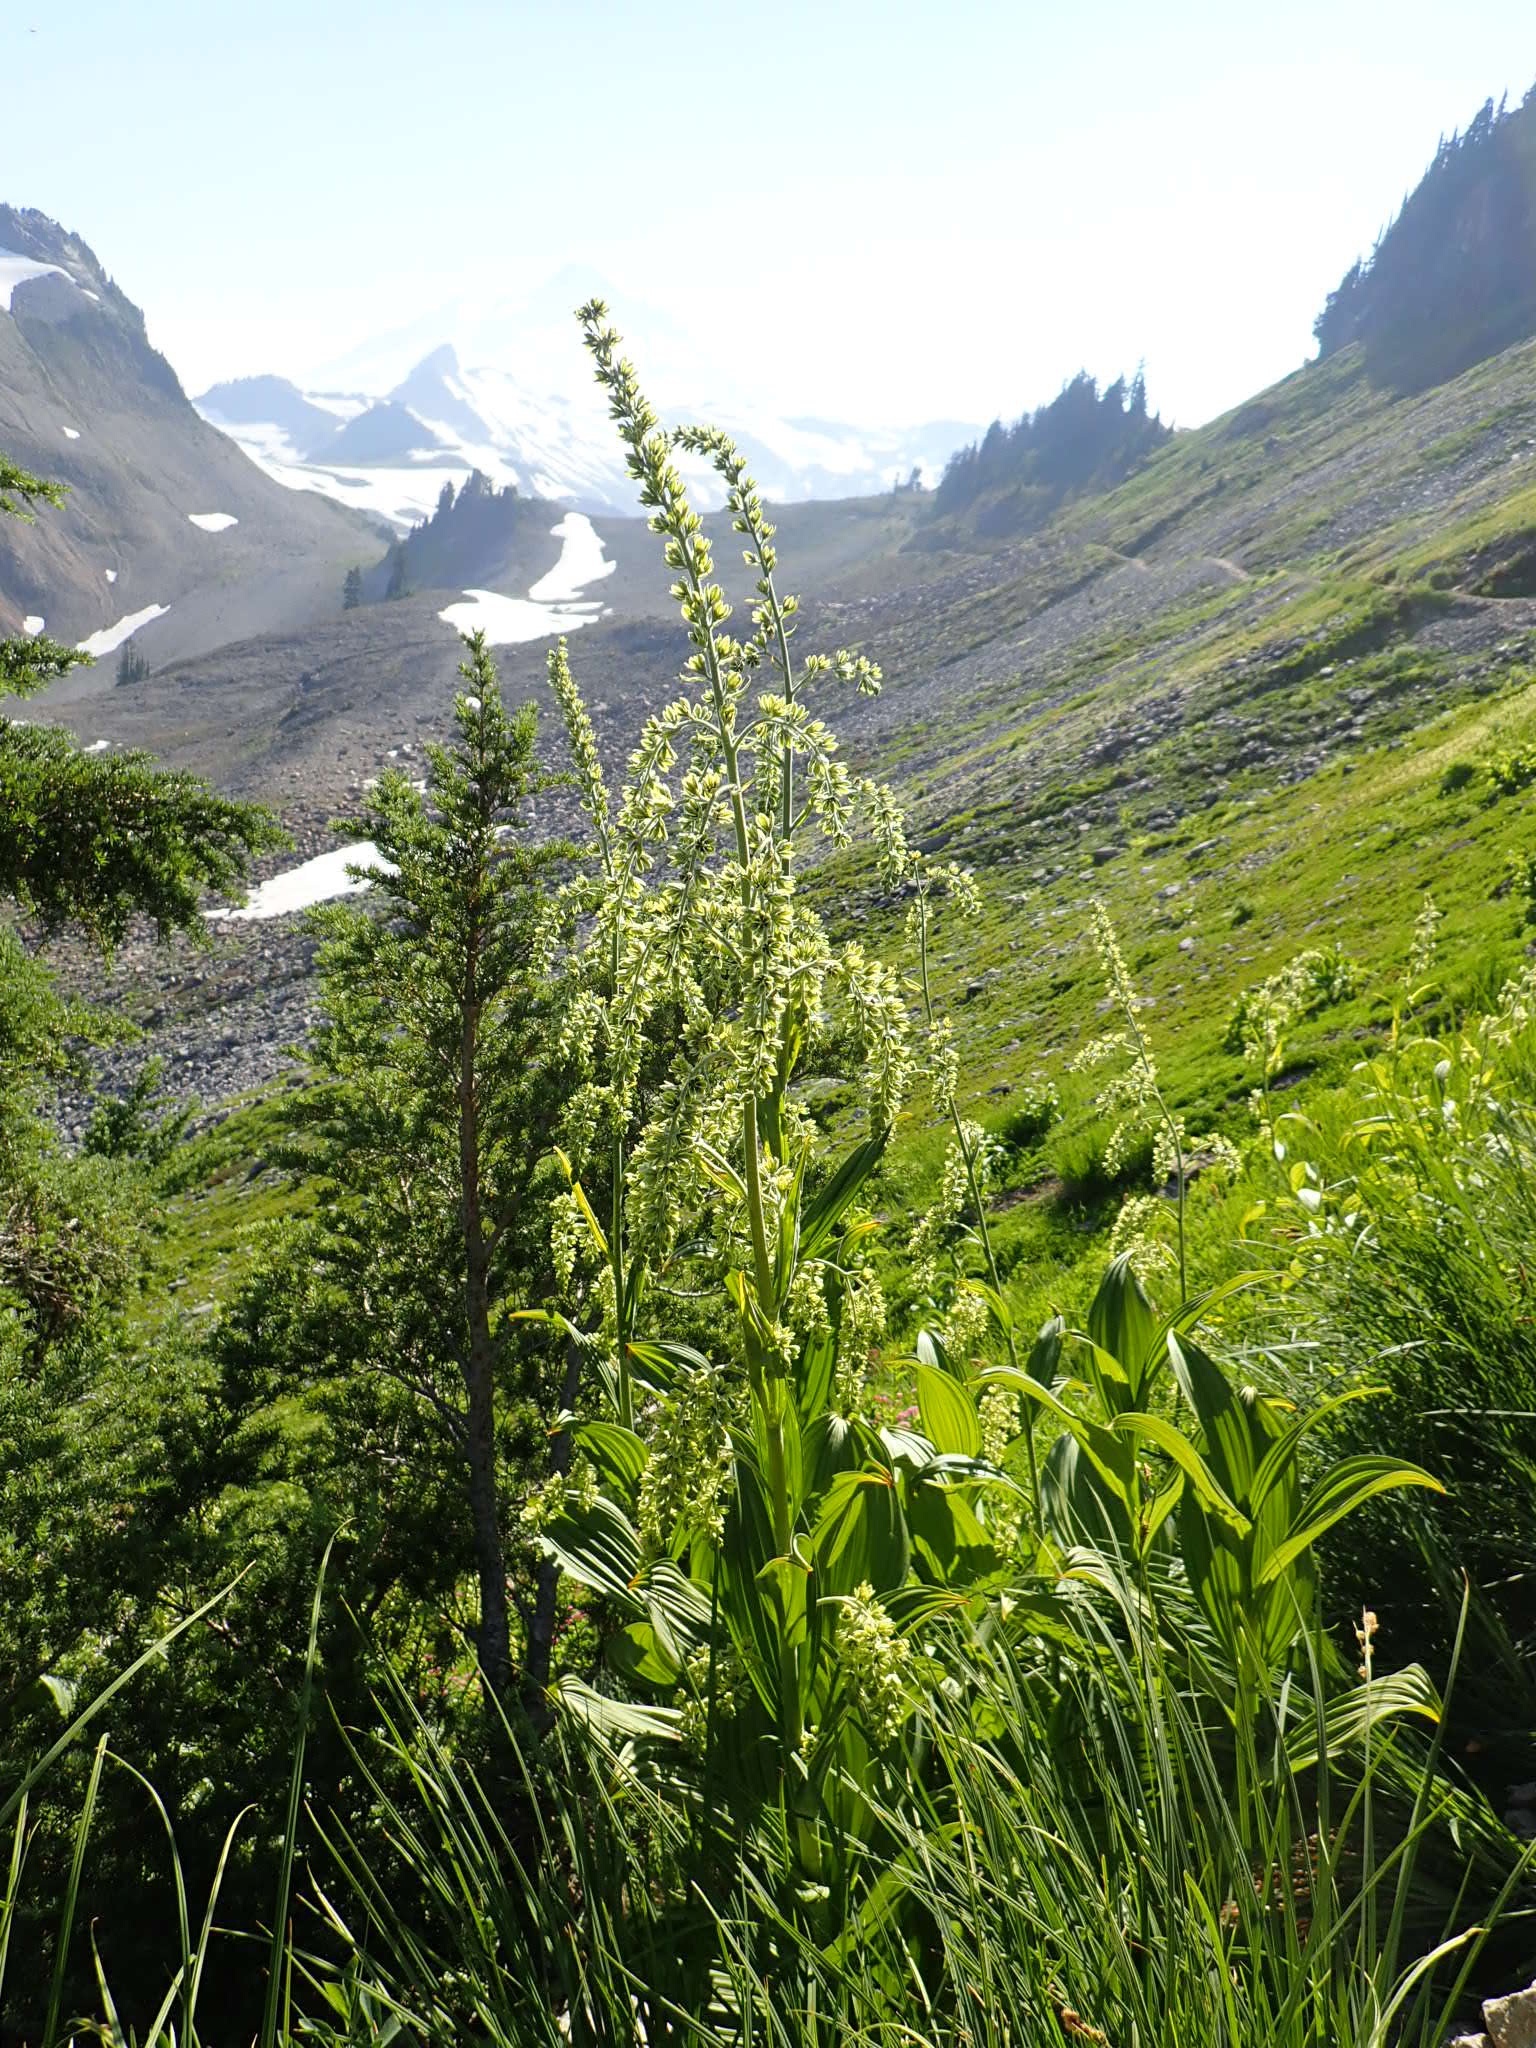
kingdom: Plantae
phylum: Tracheophyta
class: Liliopsida
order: Liliales
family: Melanthiaceae
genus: Veratrum
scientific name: Veratrum viride
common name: American false hellebore
